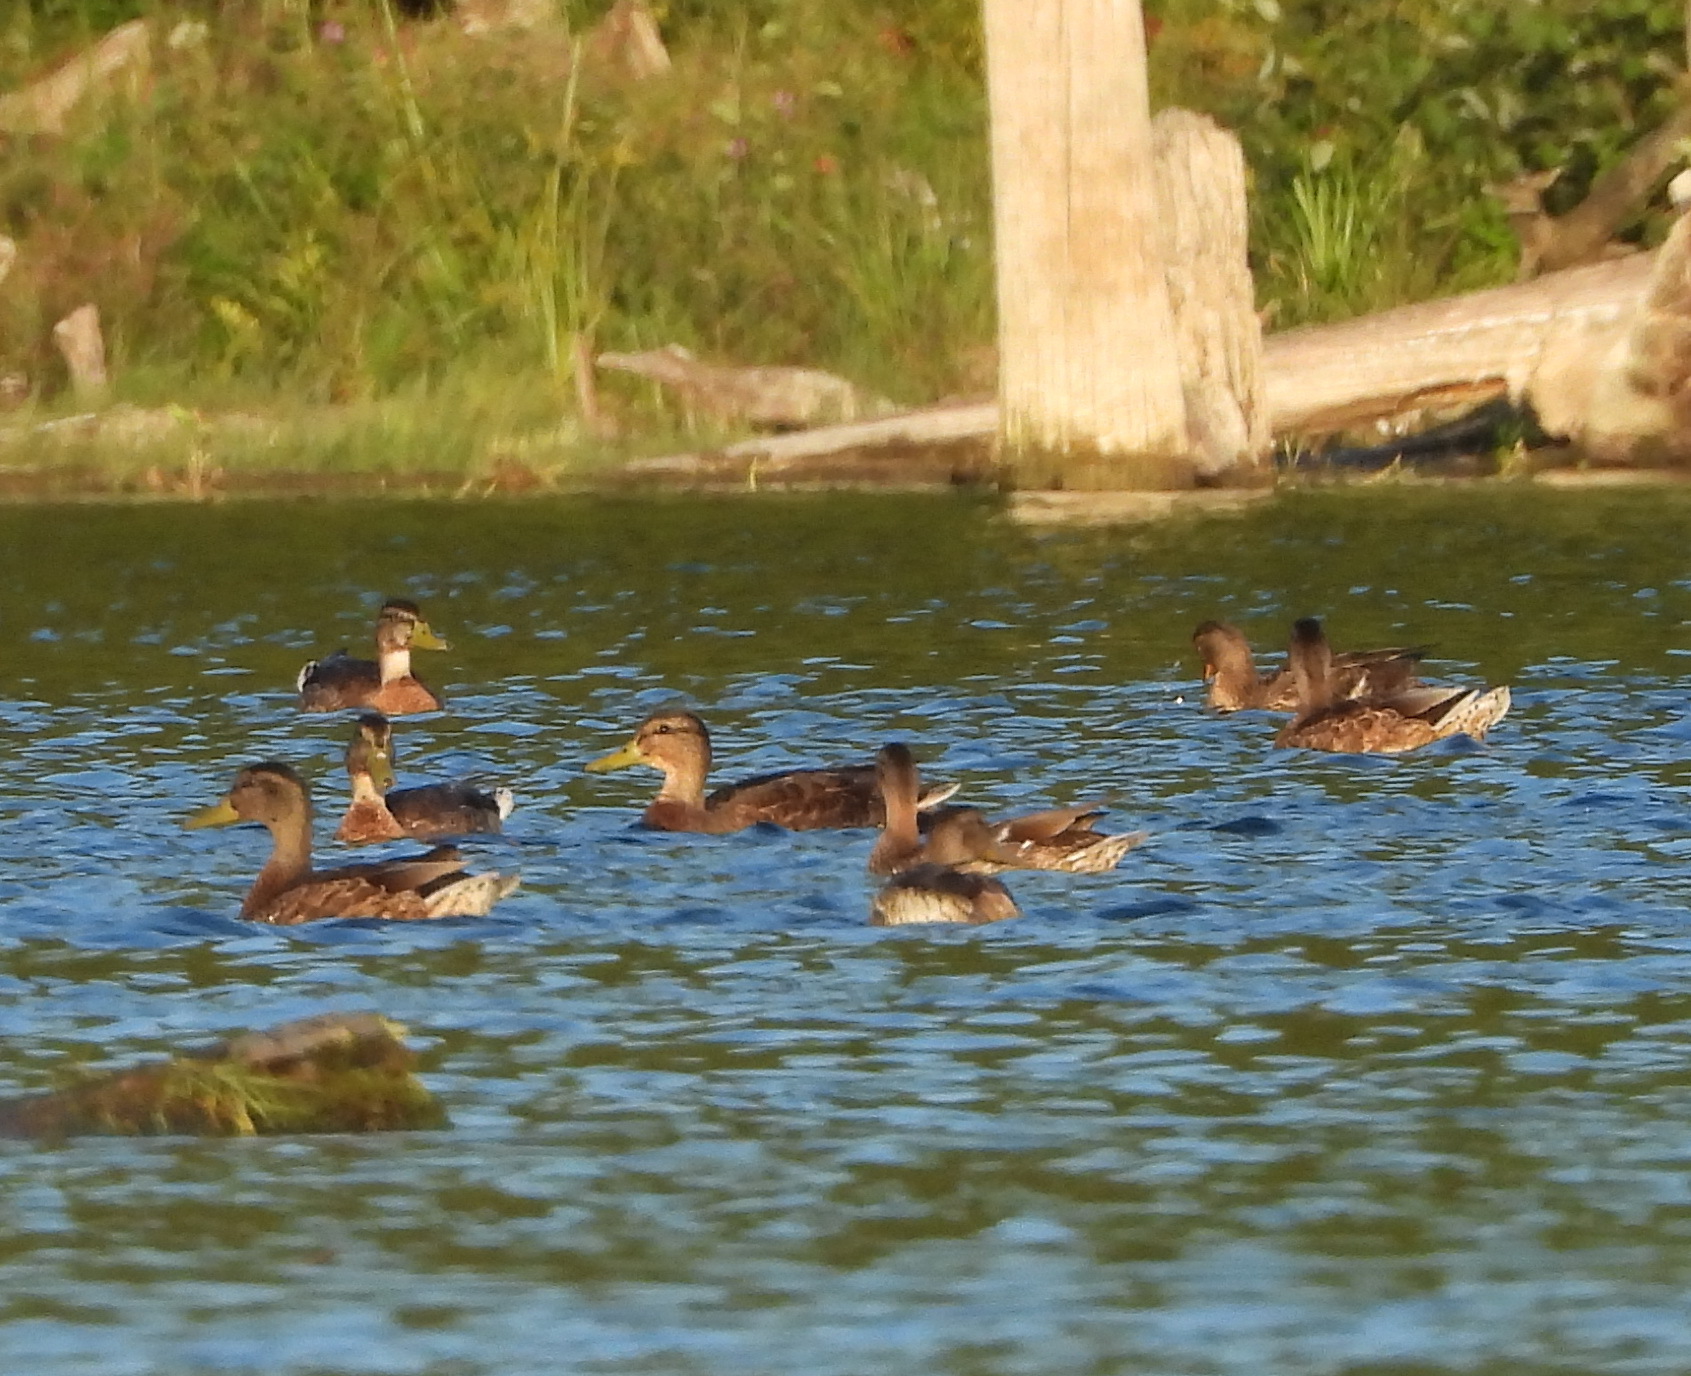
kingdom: Animalia
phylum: Chordata
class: Aves
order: Anseriformes
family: Anatidae
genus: Anas
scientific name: Anas platyrhynchos
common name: Mallard
